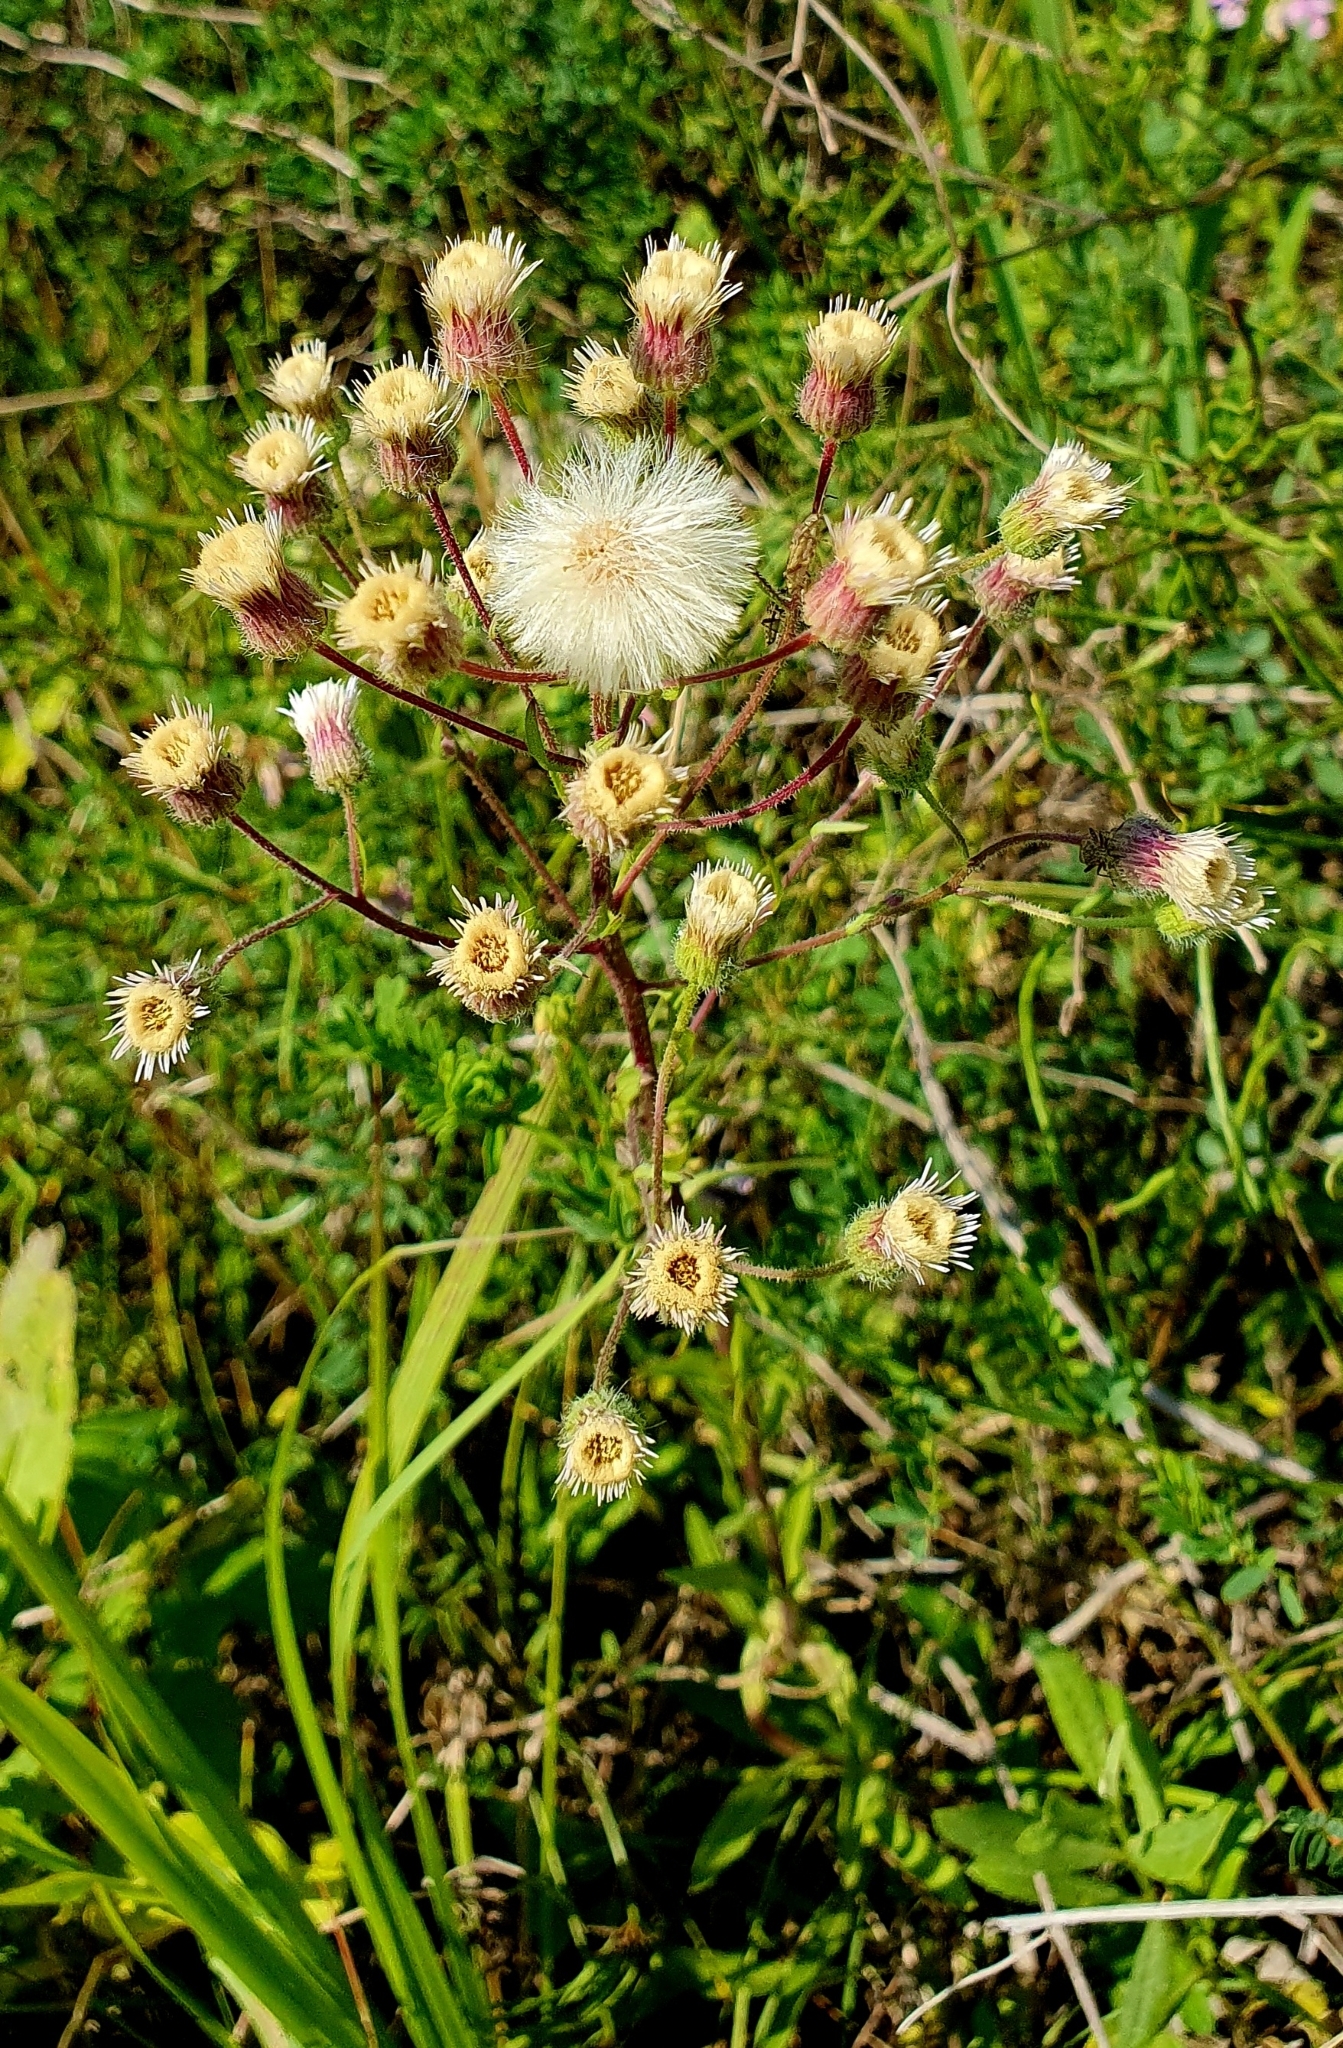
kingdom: Plantae
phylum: Tracheophyta
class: Magnoliopsida
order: Asterales
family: Asteraceae
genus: Erigeron
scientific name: Erigeron acris
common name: Blue fleabane
